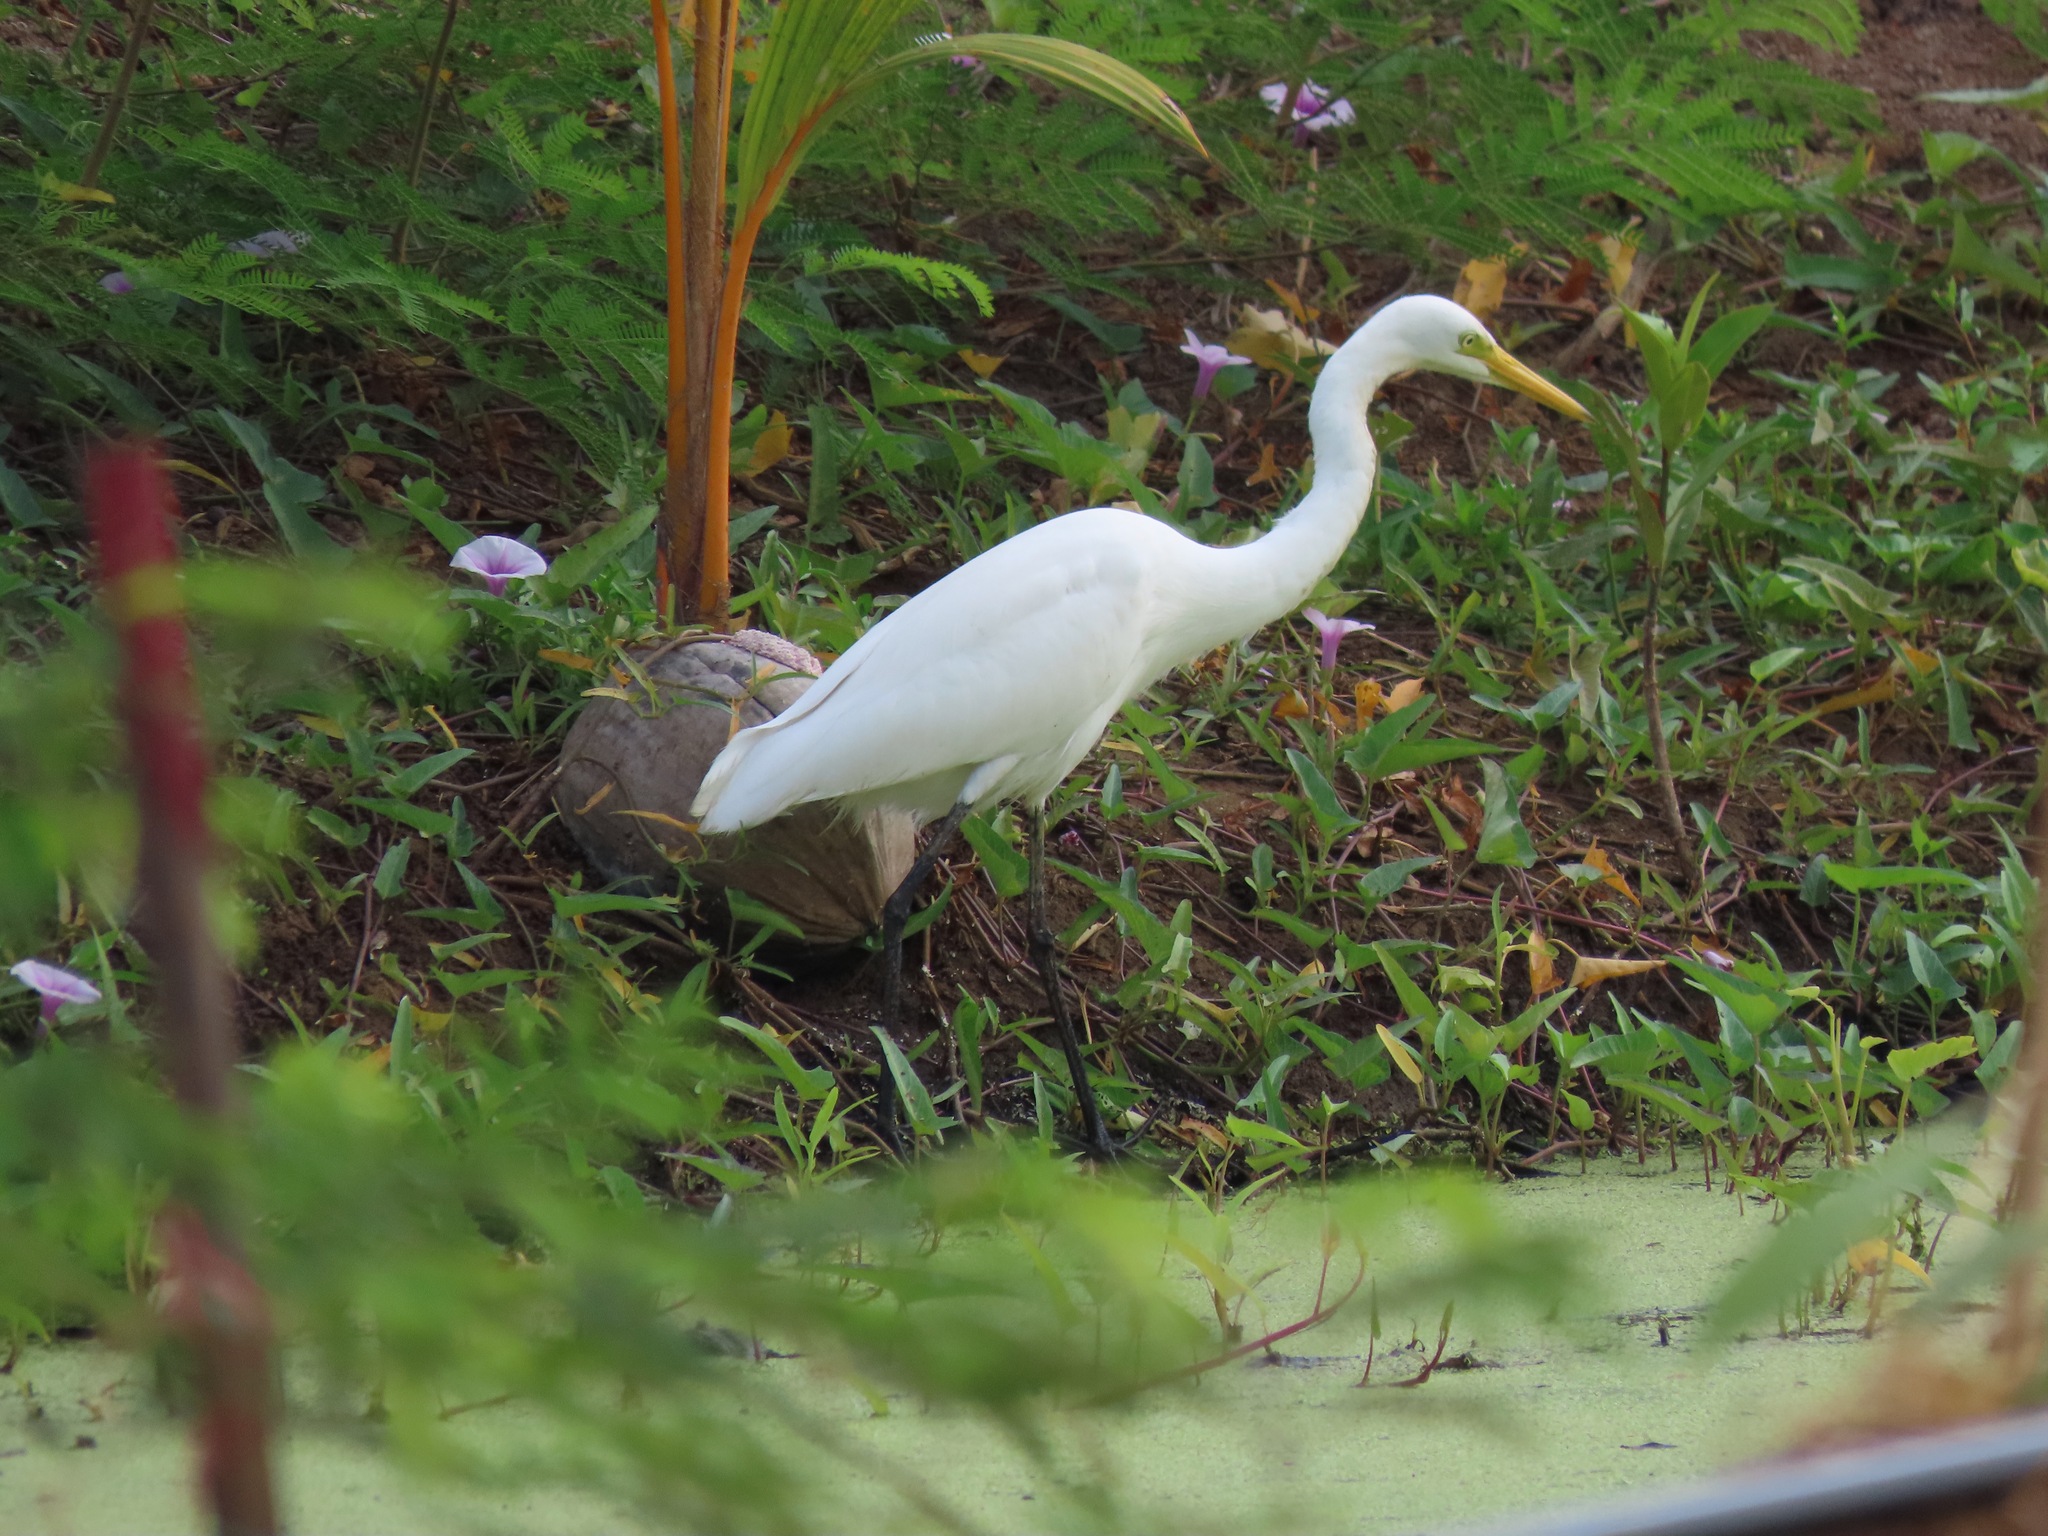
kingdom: Animalia
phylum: Chordata
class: Aves
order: Pelecaniformes
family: Ardeidae
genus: Egretta
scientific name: Egretta intermedia
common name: Intermediate egret
